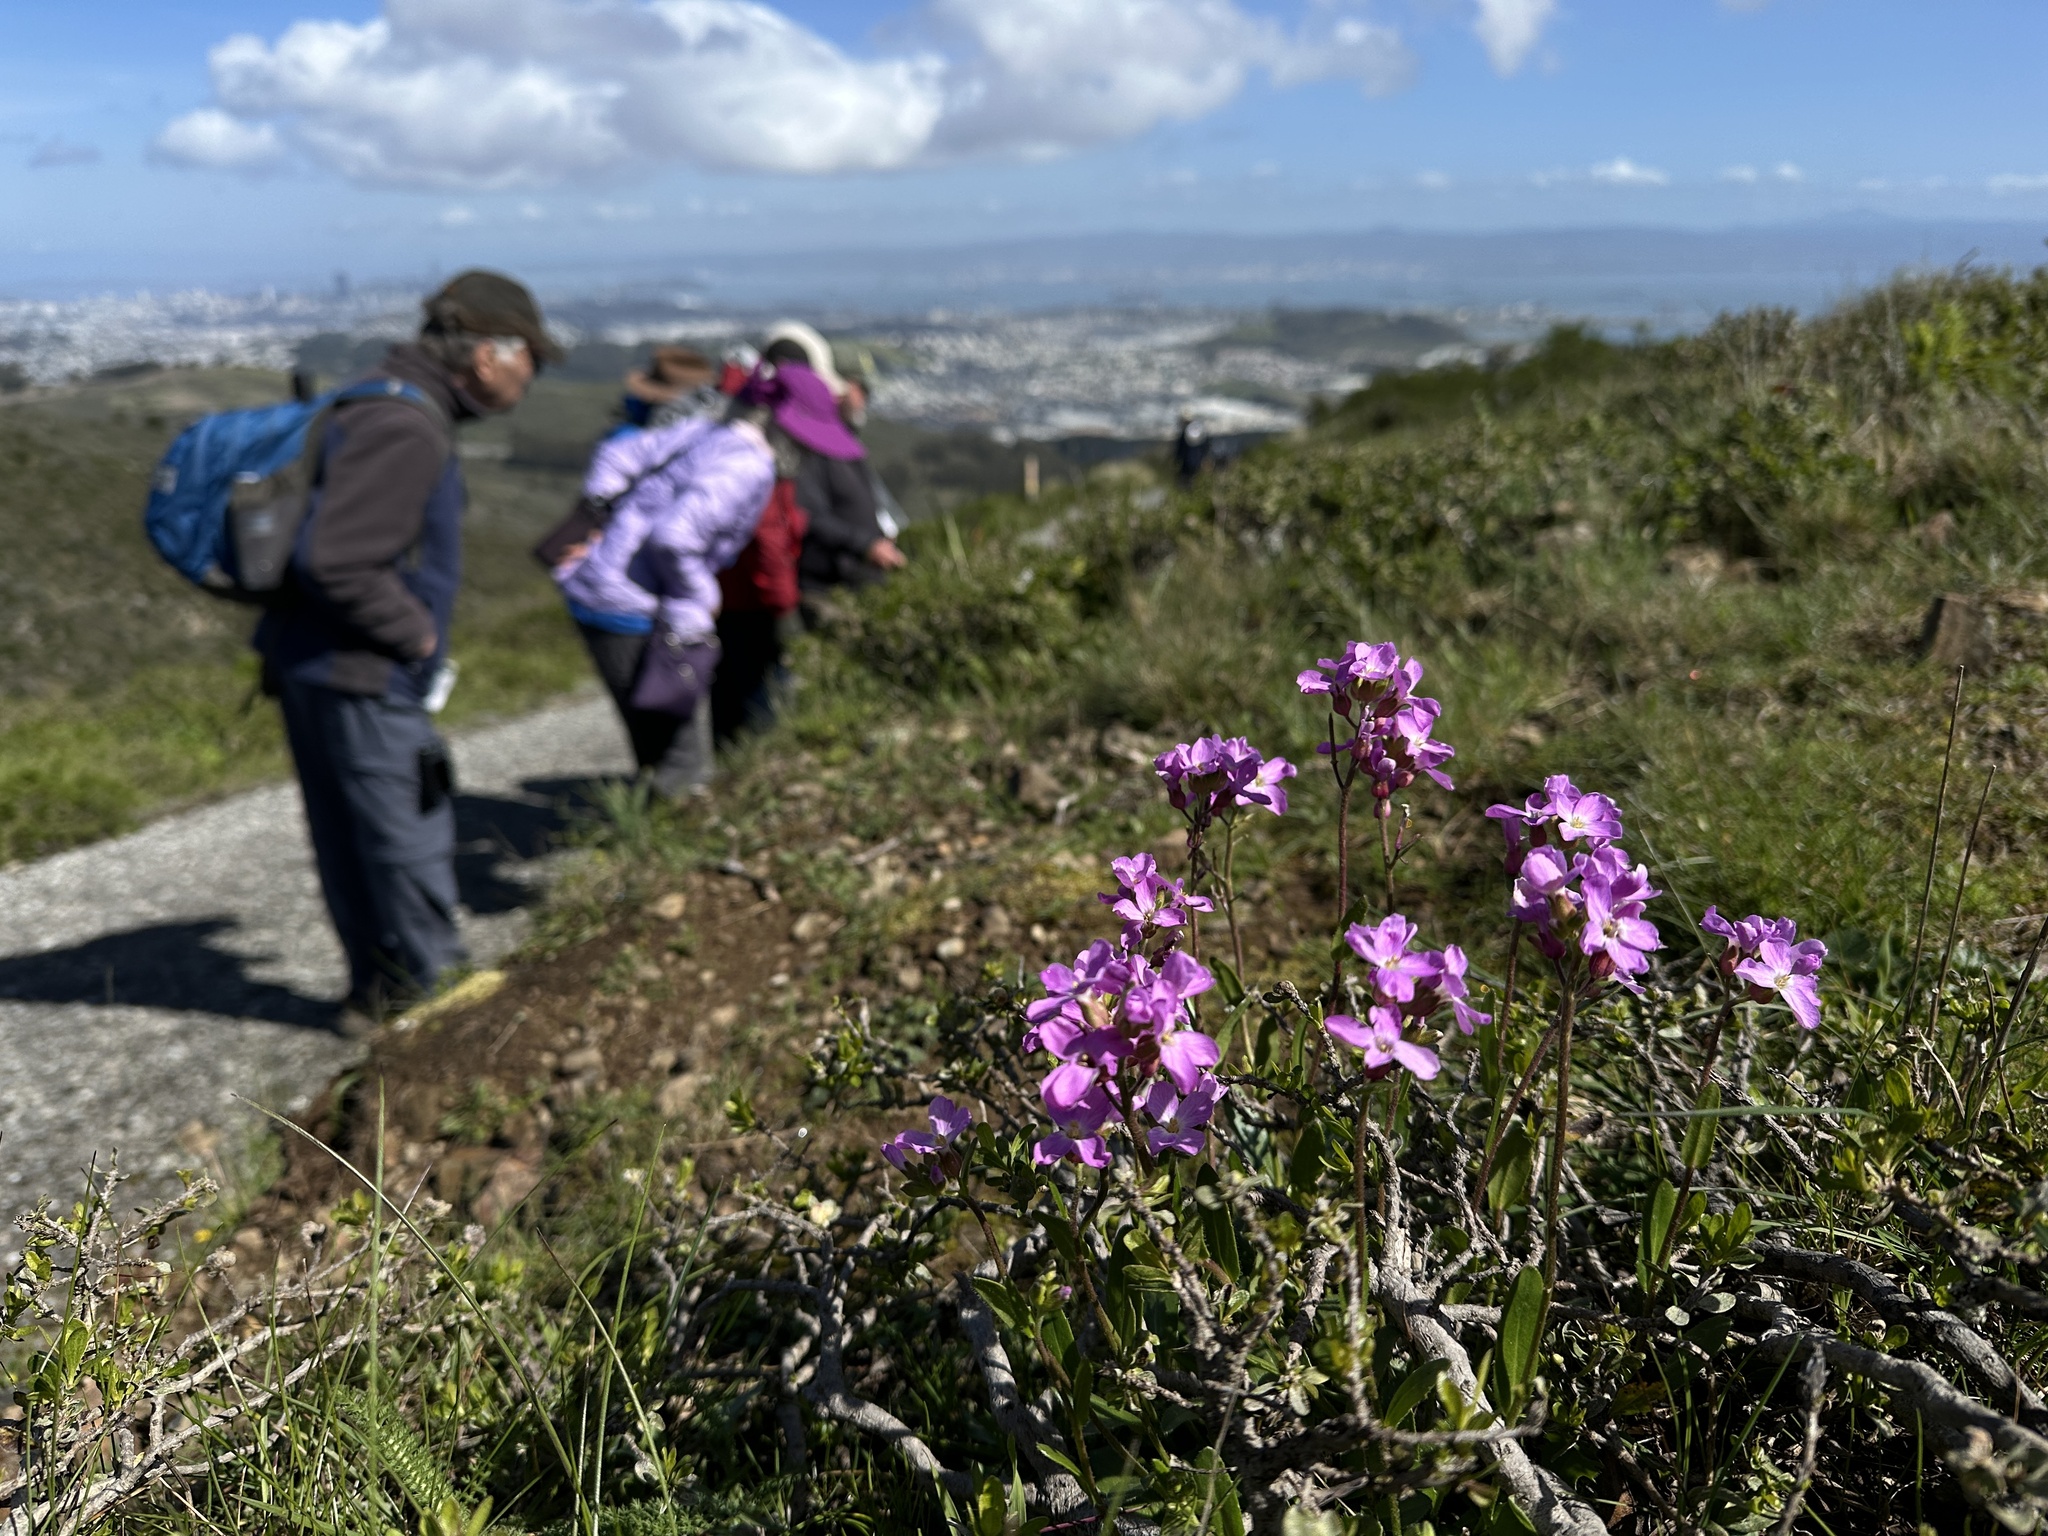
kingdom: Plantae
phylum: Tracheophyta
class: Magnoliopsida
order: Brassicales
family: Brassicaceae
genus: Arabis
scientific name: Arabis blepharophylla
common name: Rose rockcress
